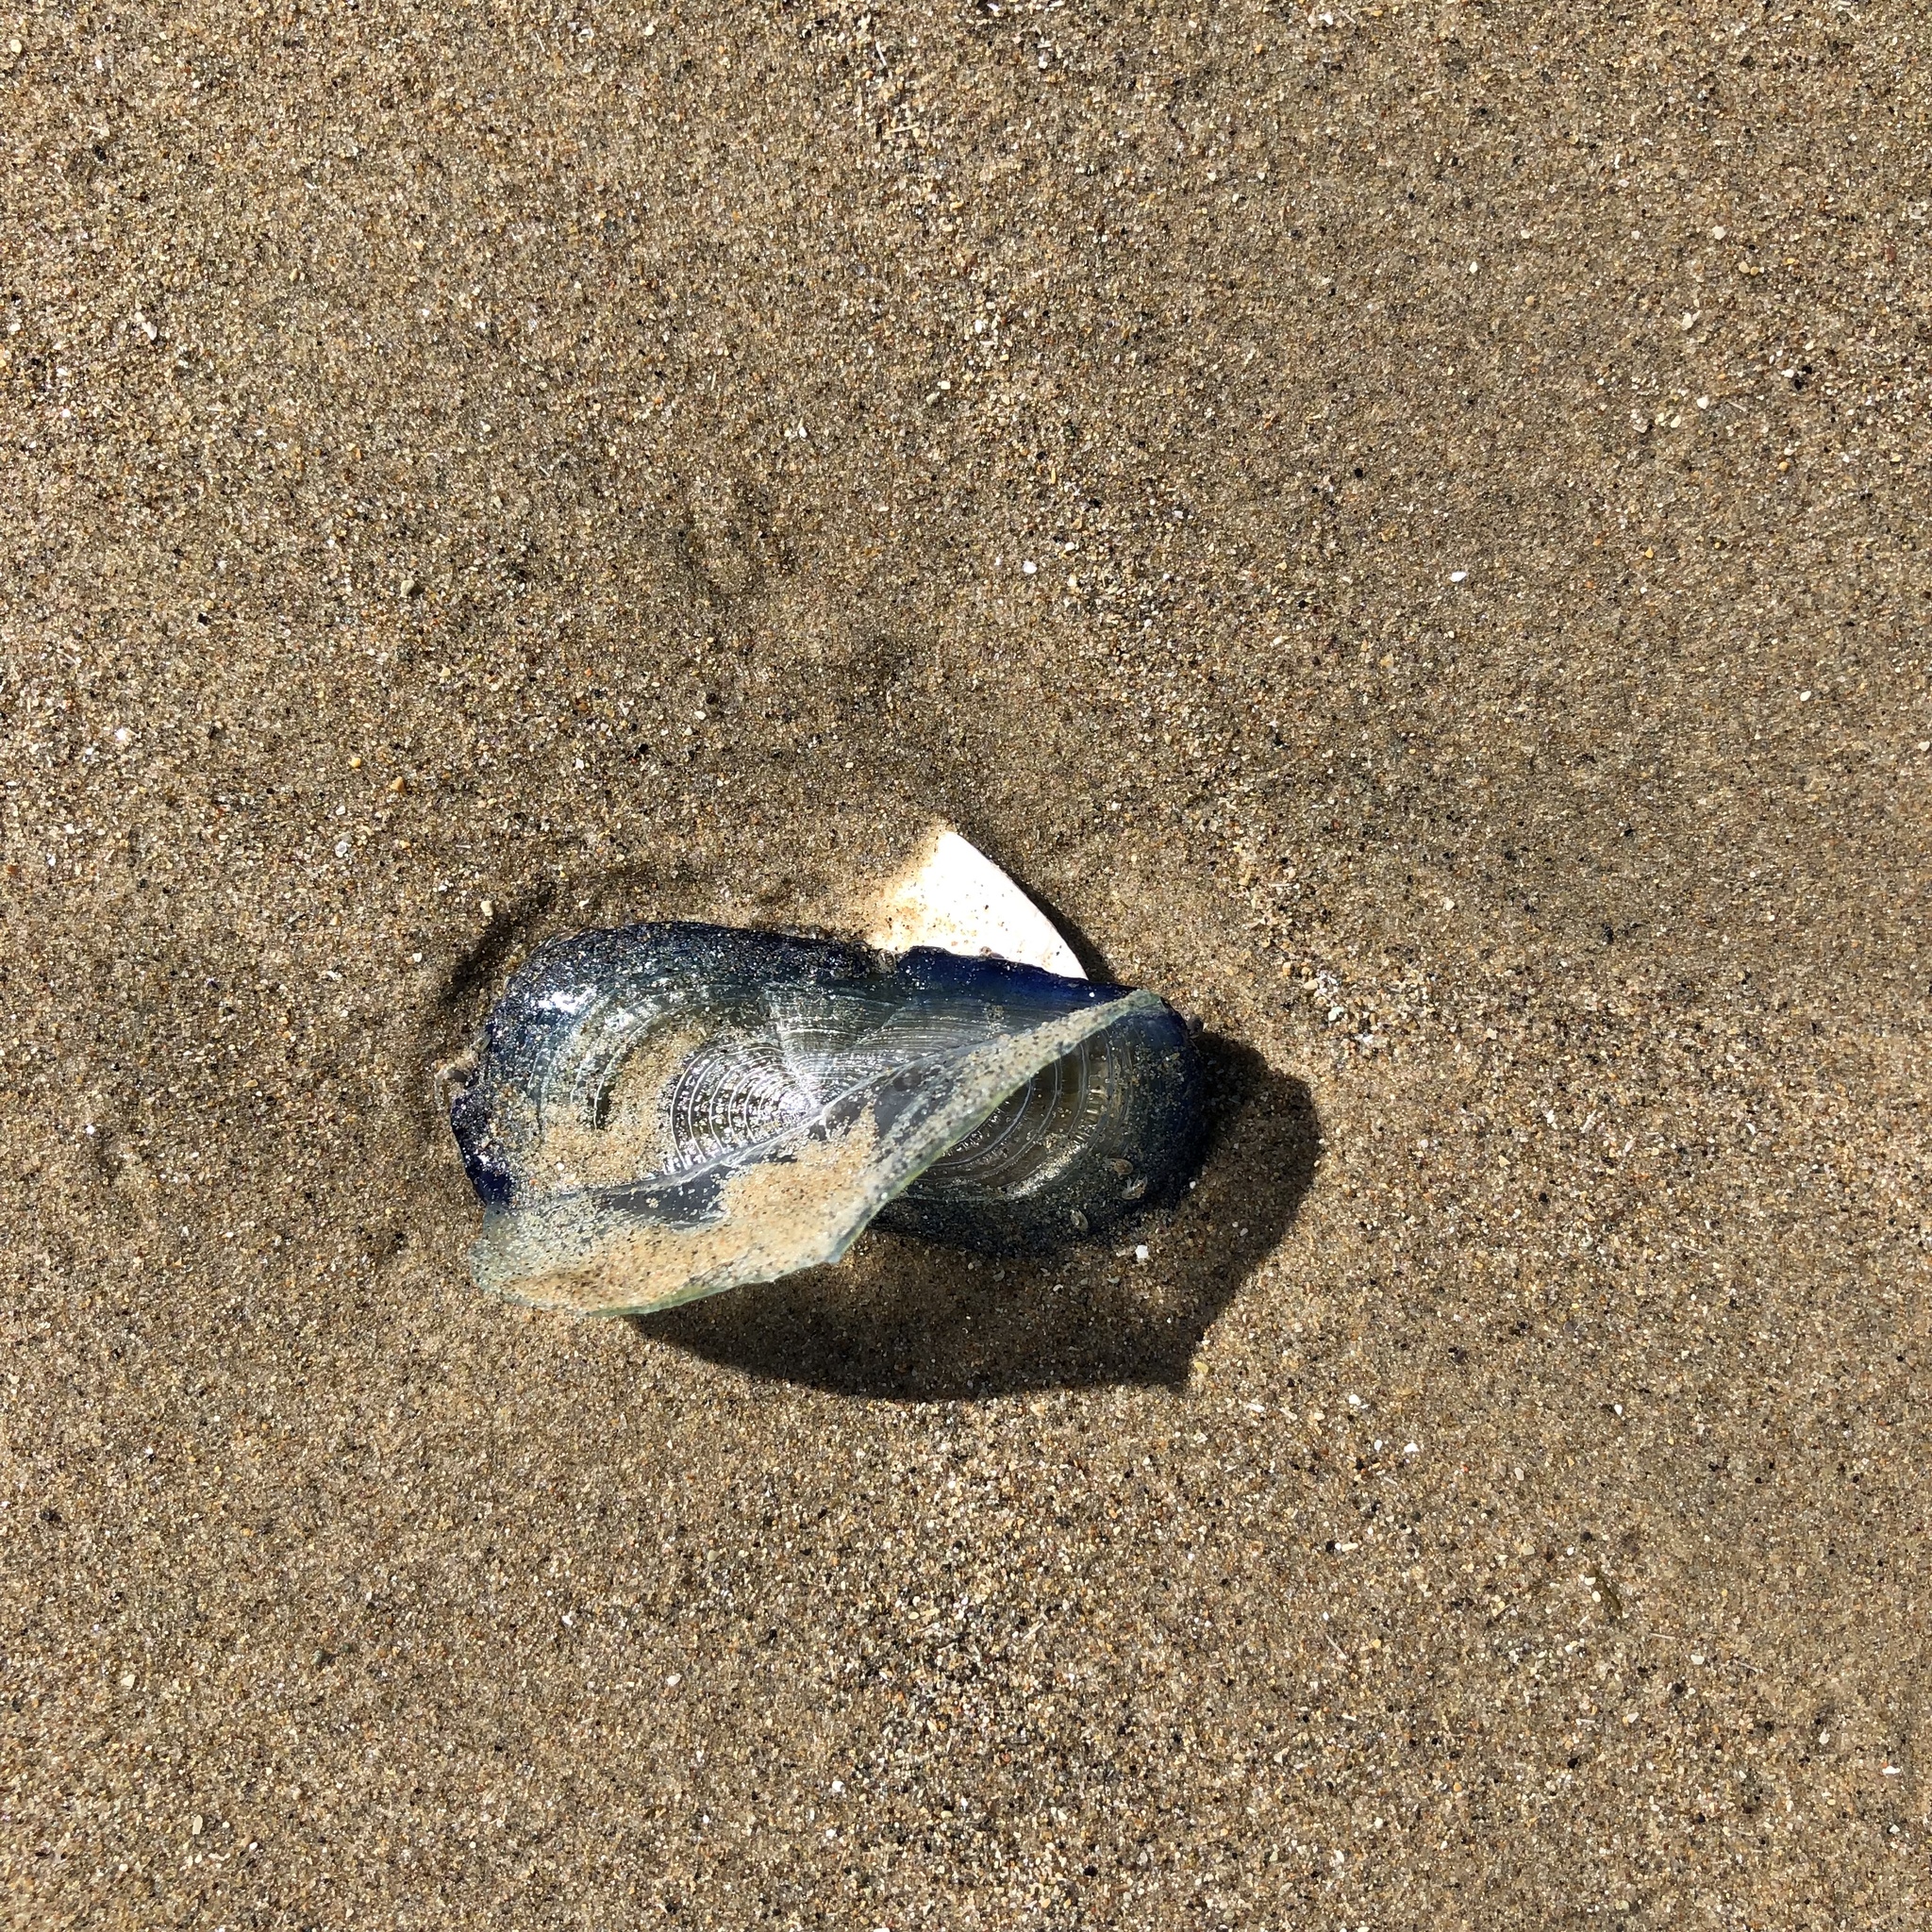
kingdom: Animalia
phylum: Cnidaria
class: Hydrozoa
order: Anthoathecata
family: Porpitidae
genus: Velella
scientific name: Velella velella
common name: By-the-wind-sailor
